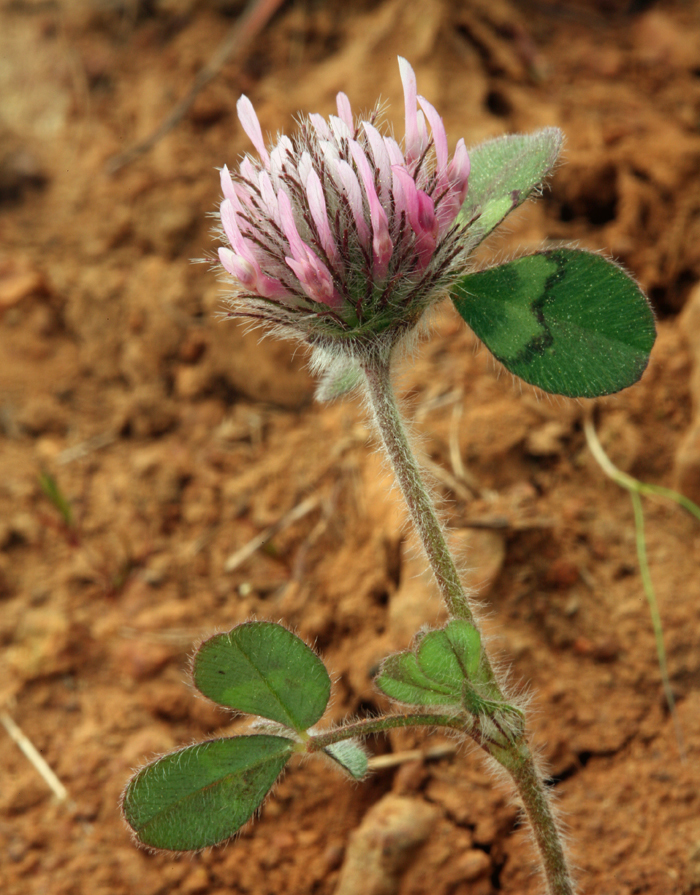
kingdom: Plantae
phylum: Tracheophyta
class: Magnoliopsida
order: Fabales
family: Fabaceae
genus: Trifolium
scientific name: Trifolium hirtum
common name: Rose clover
